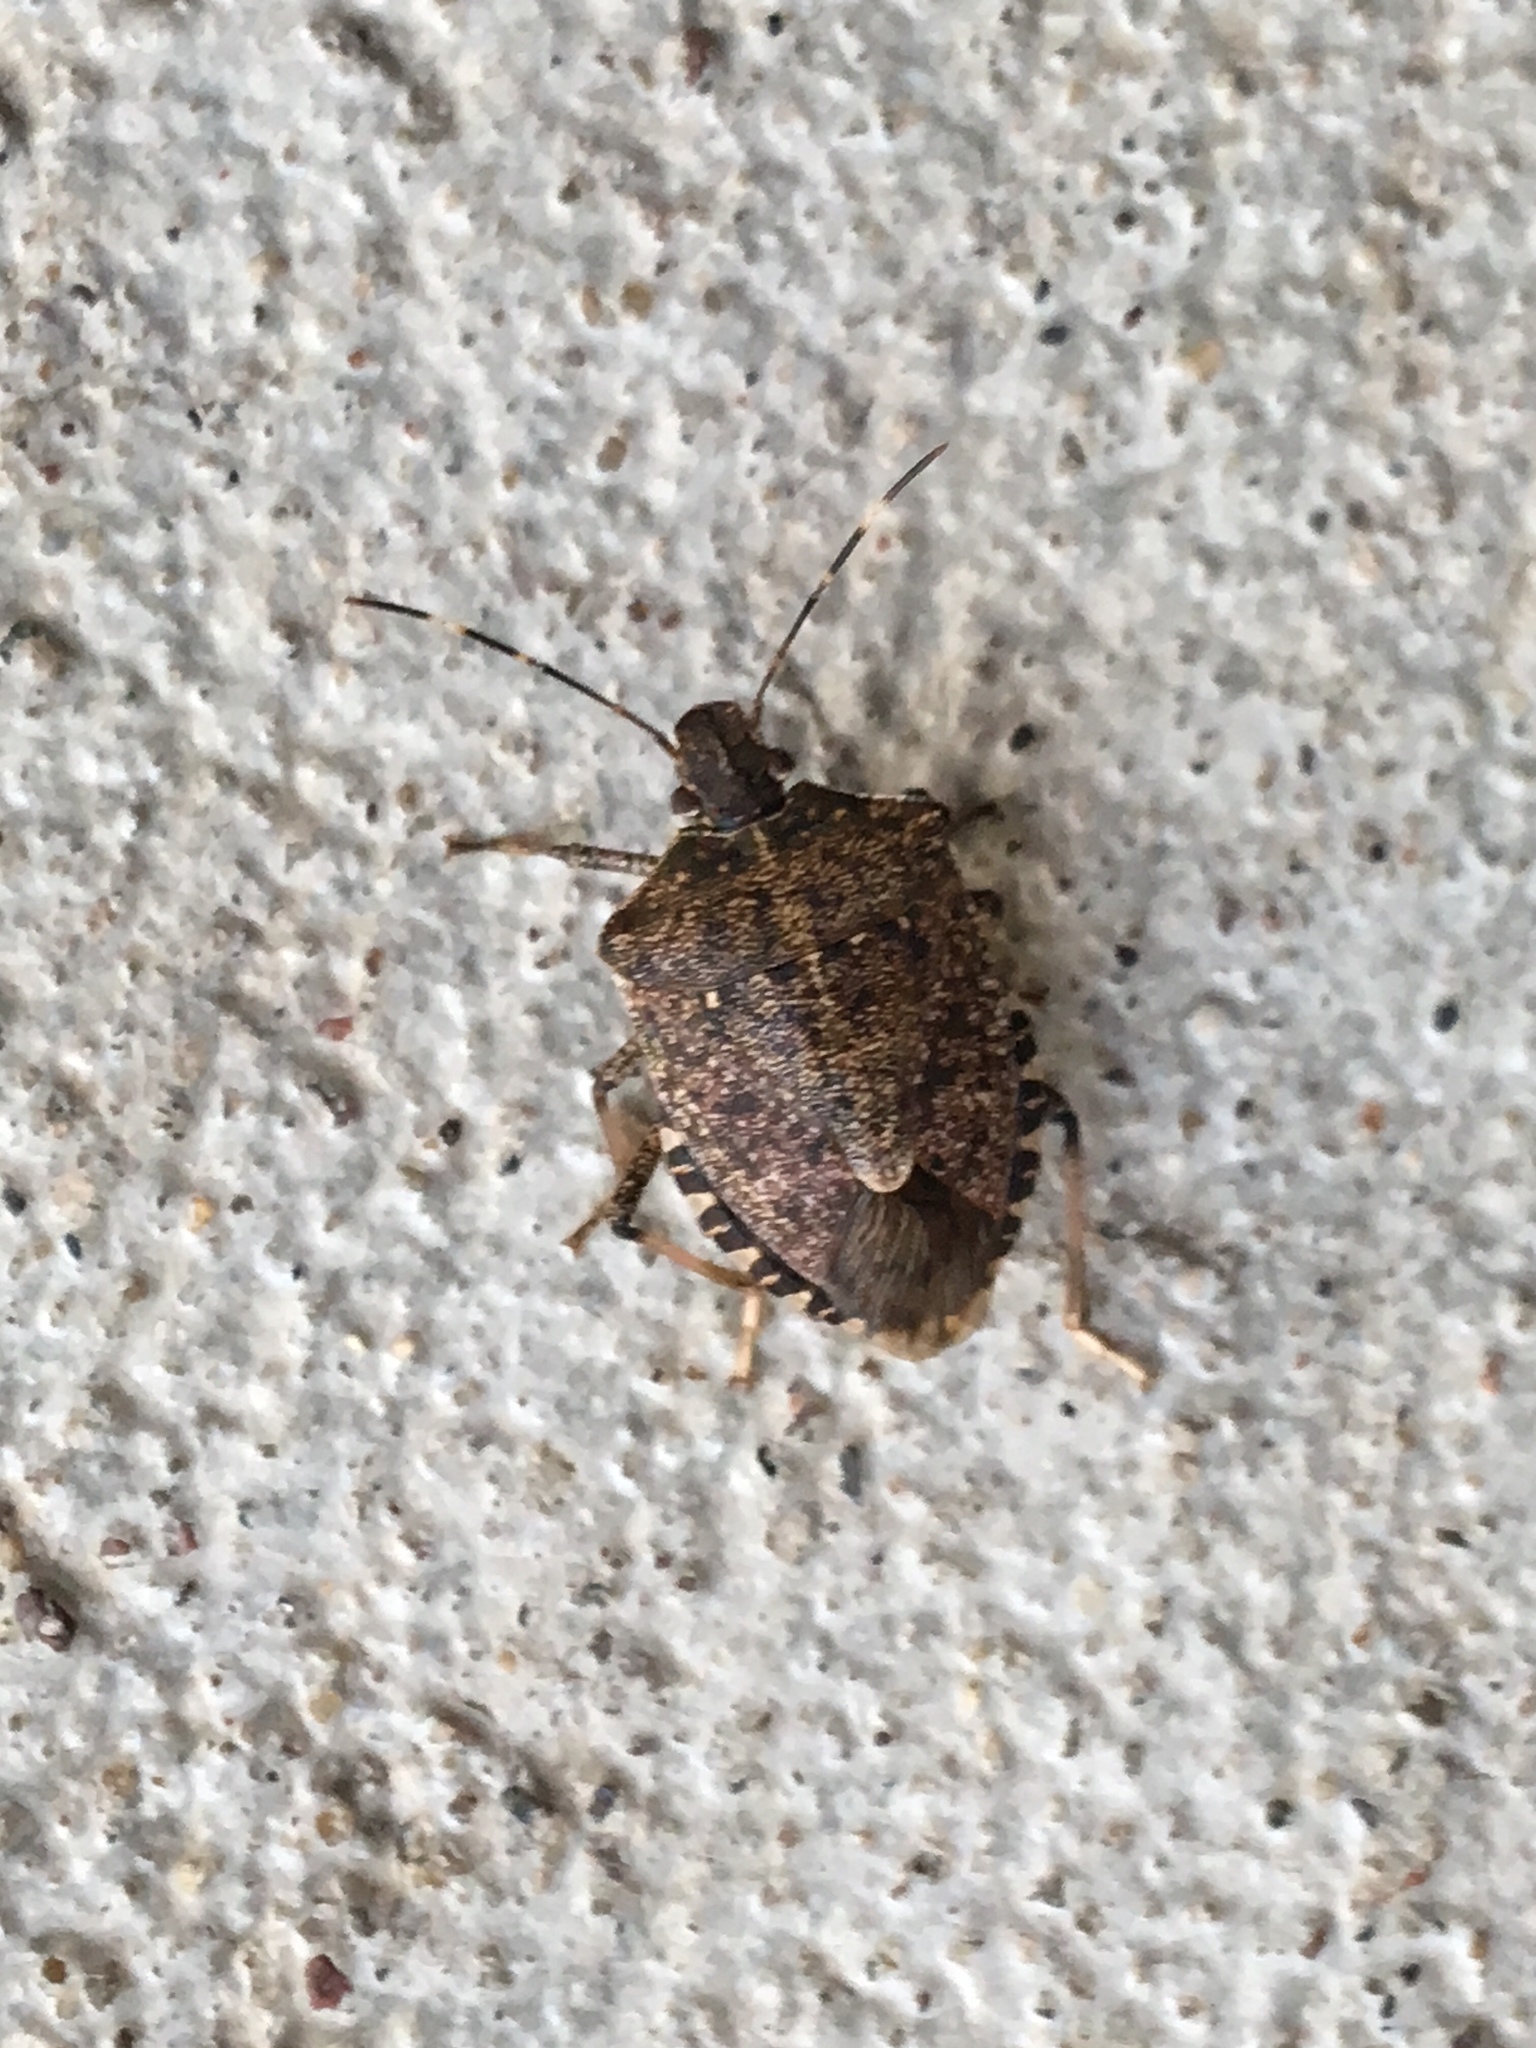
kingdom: Animalia
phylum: Arthropoda
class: Insecta
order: Hemiptera
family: Pentatomidae
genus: Halyomorpha
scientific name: Halyomorpha halys
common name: Brown marmorated stink bug
